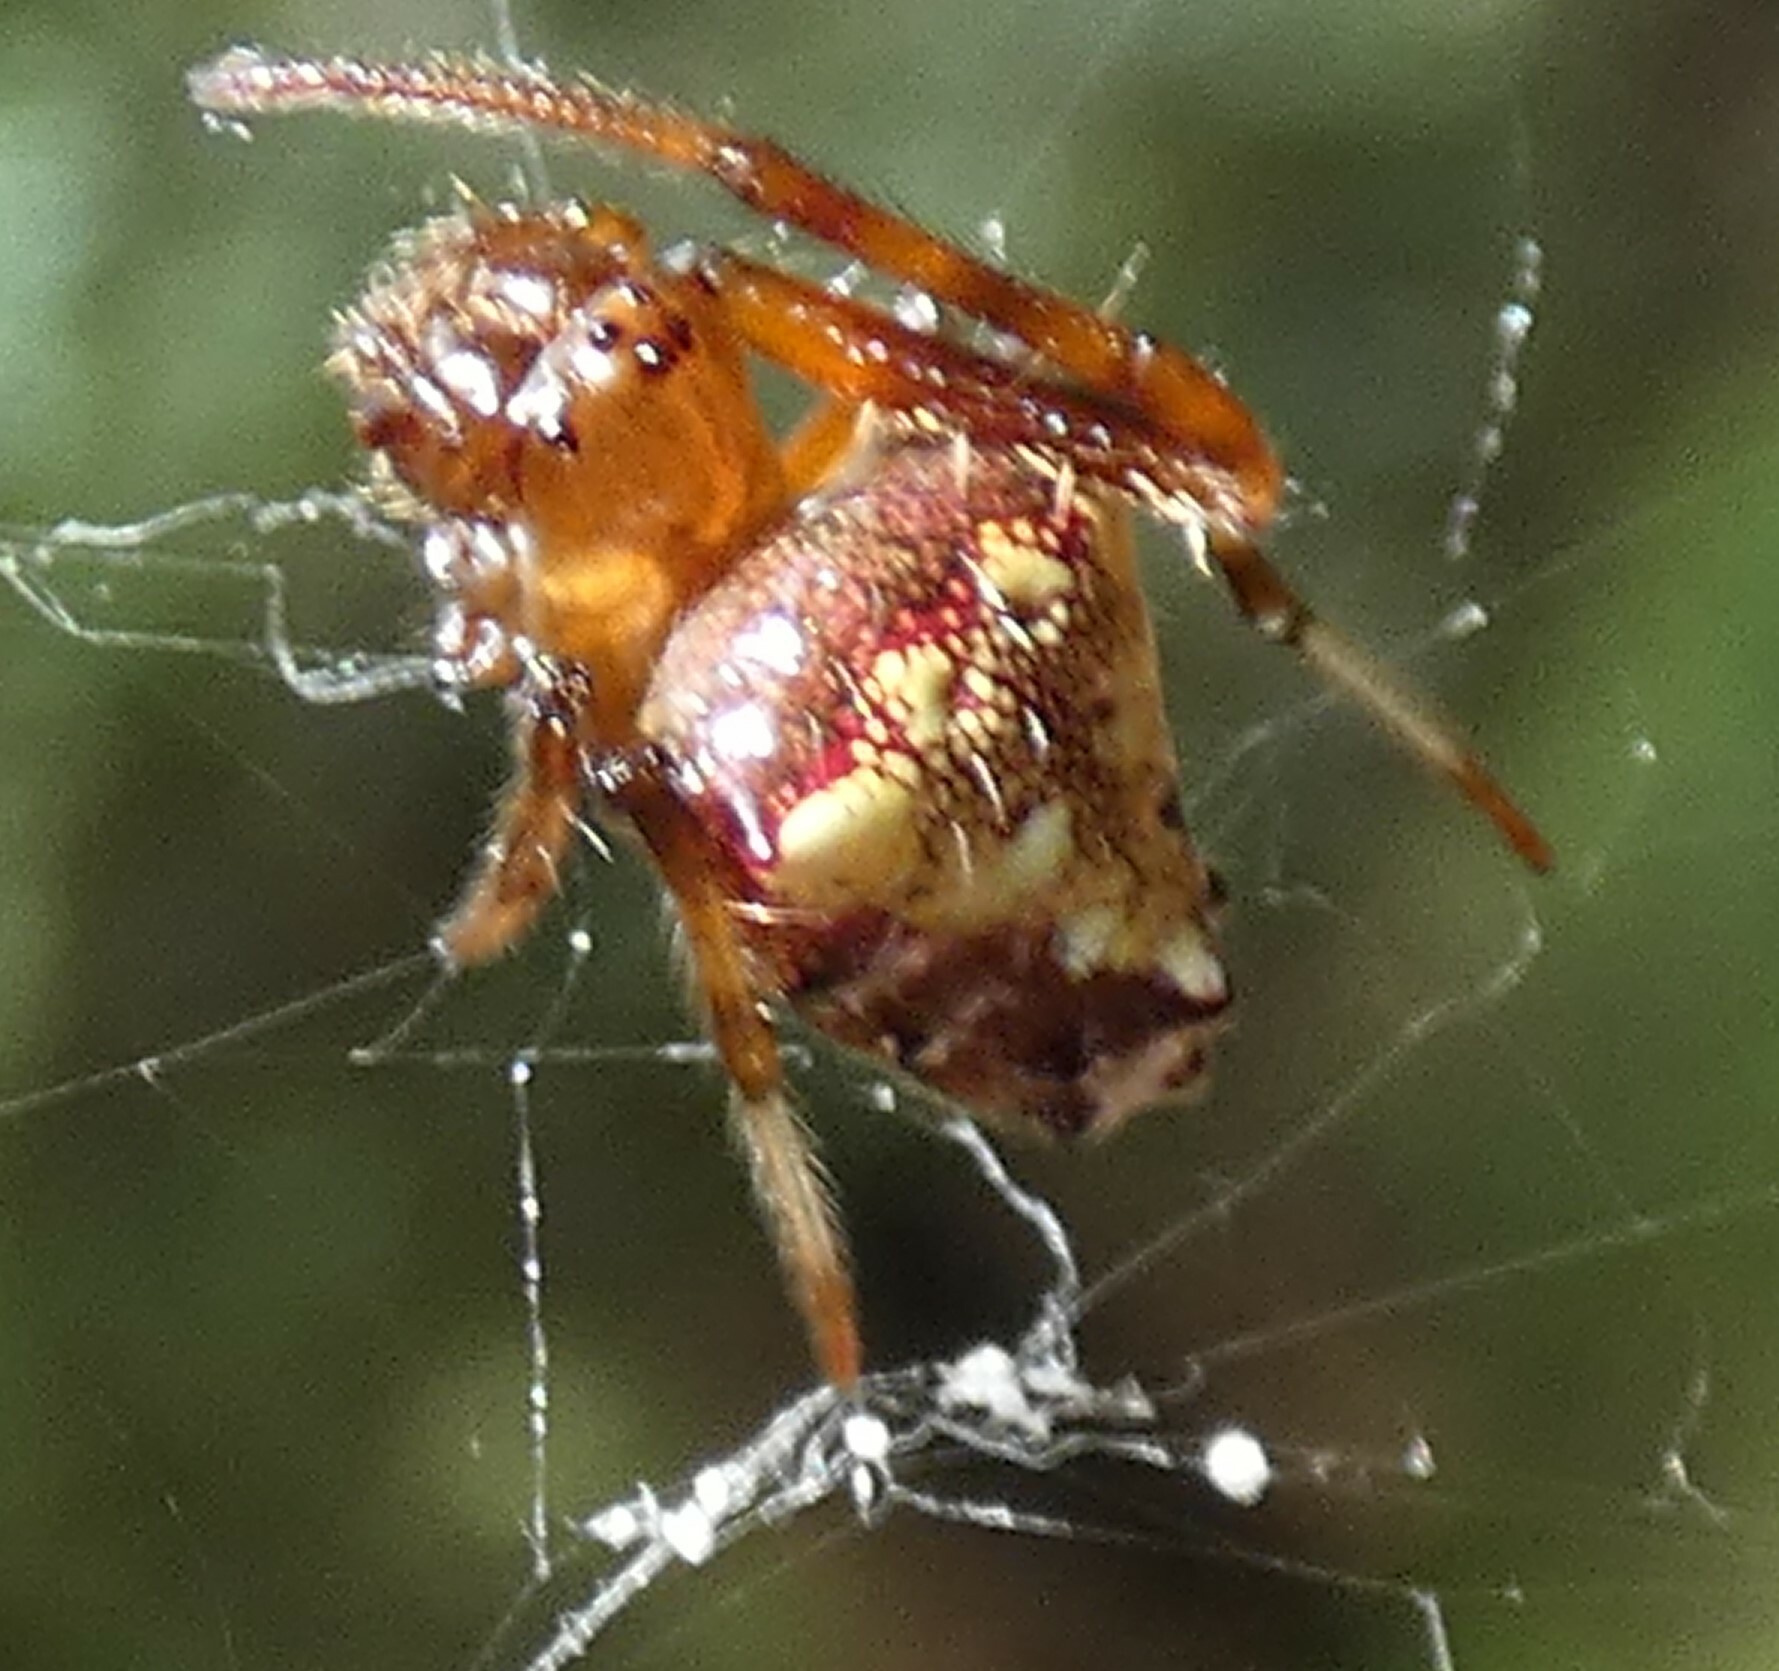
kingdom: Animalia
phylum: Arthropoda
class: Arachnida
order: Araneae
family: Araneidae
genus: Verrucosa
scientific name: Verrucosa arenata
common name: Orb weavers
